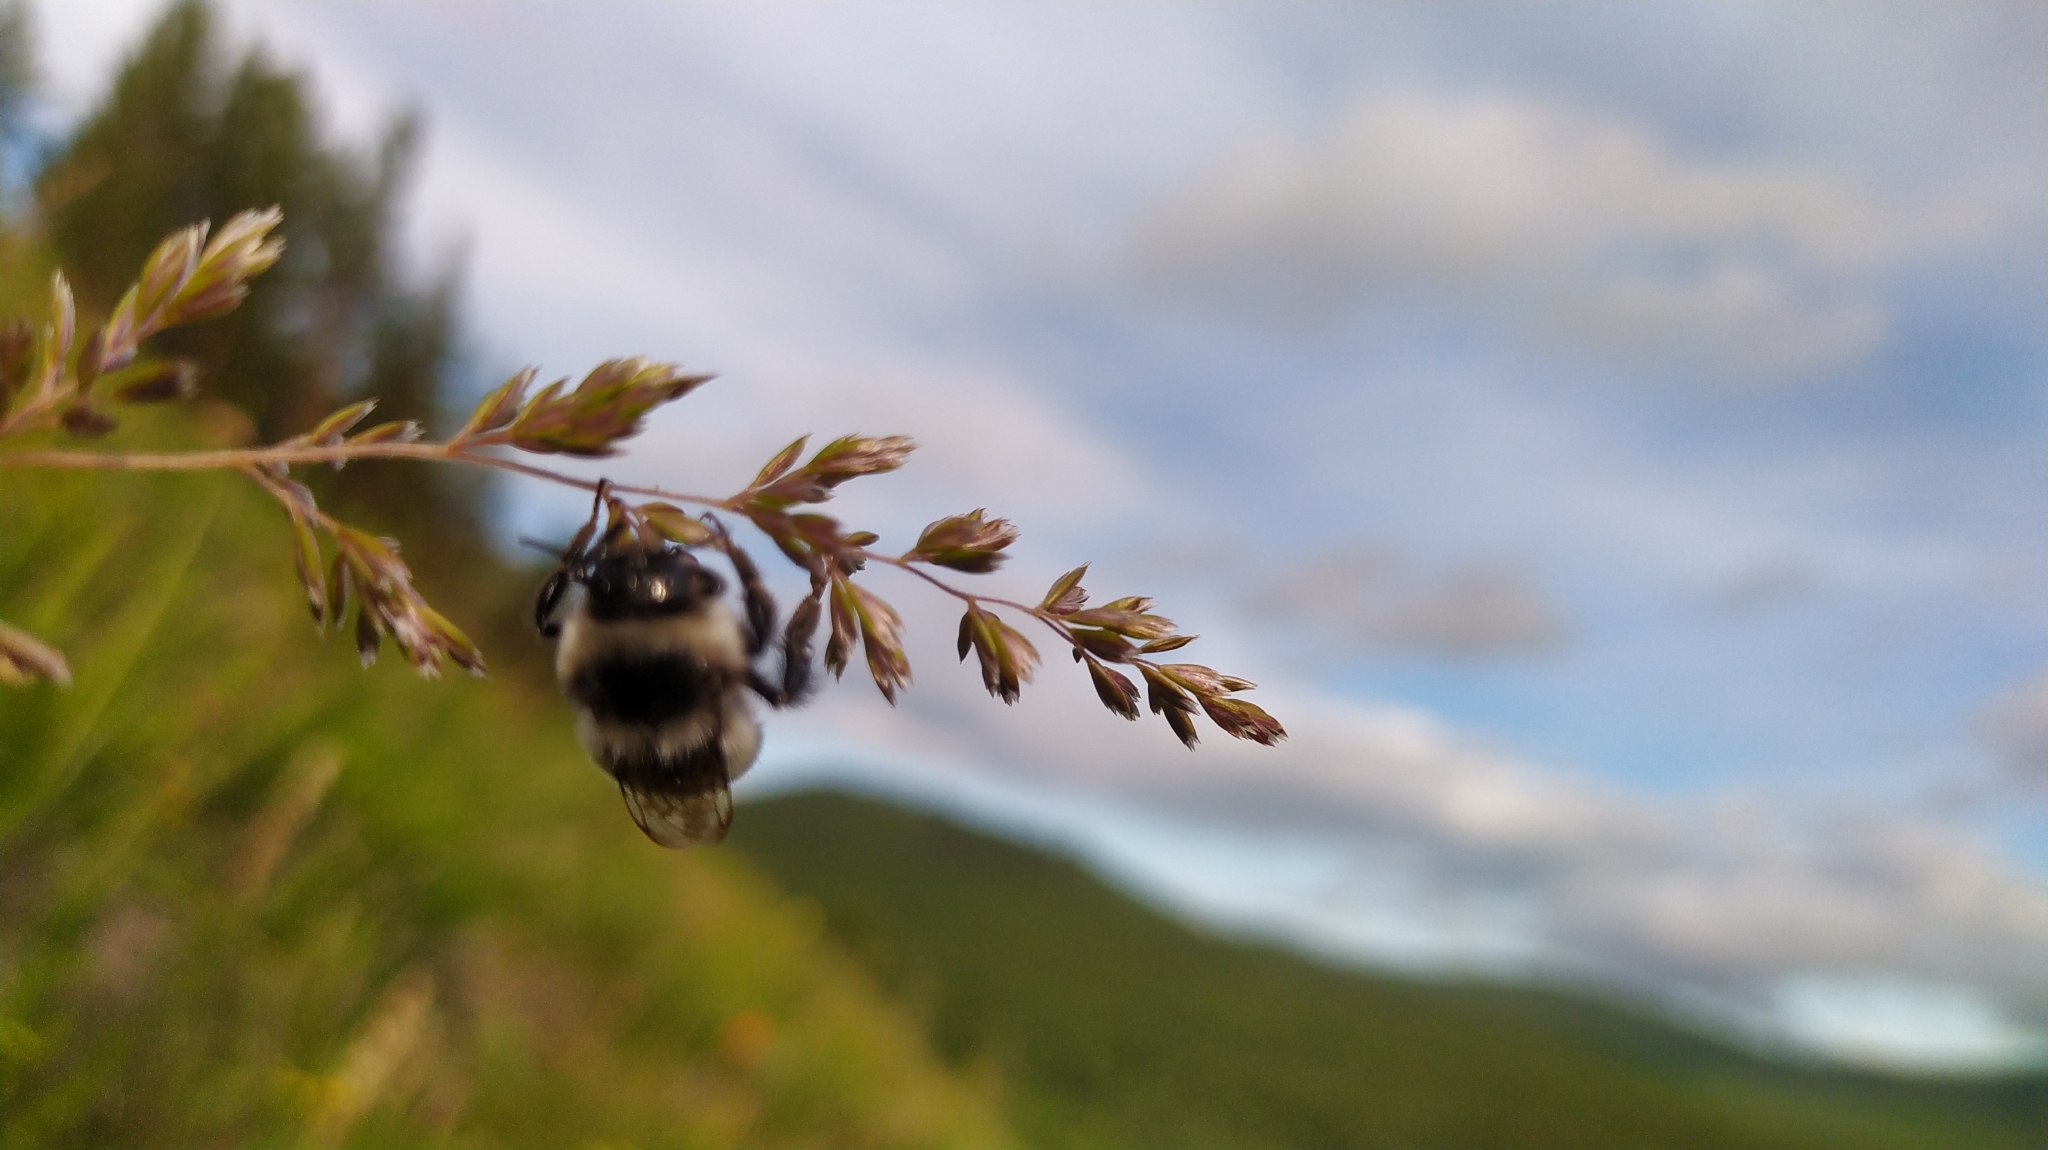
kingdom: Animalia
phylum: Arthropoda
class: Insecta
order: Hymenoptera
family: Apidae
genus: Bombus
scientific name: Bombus
